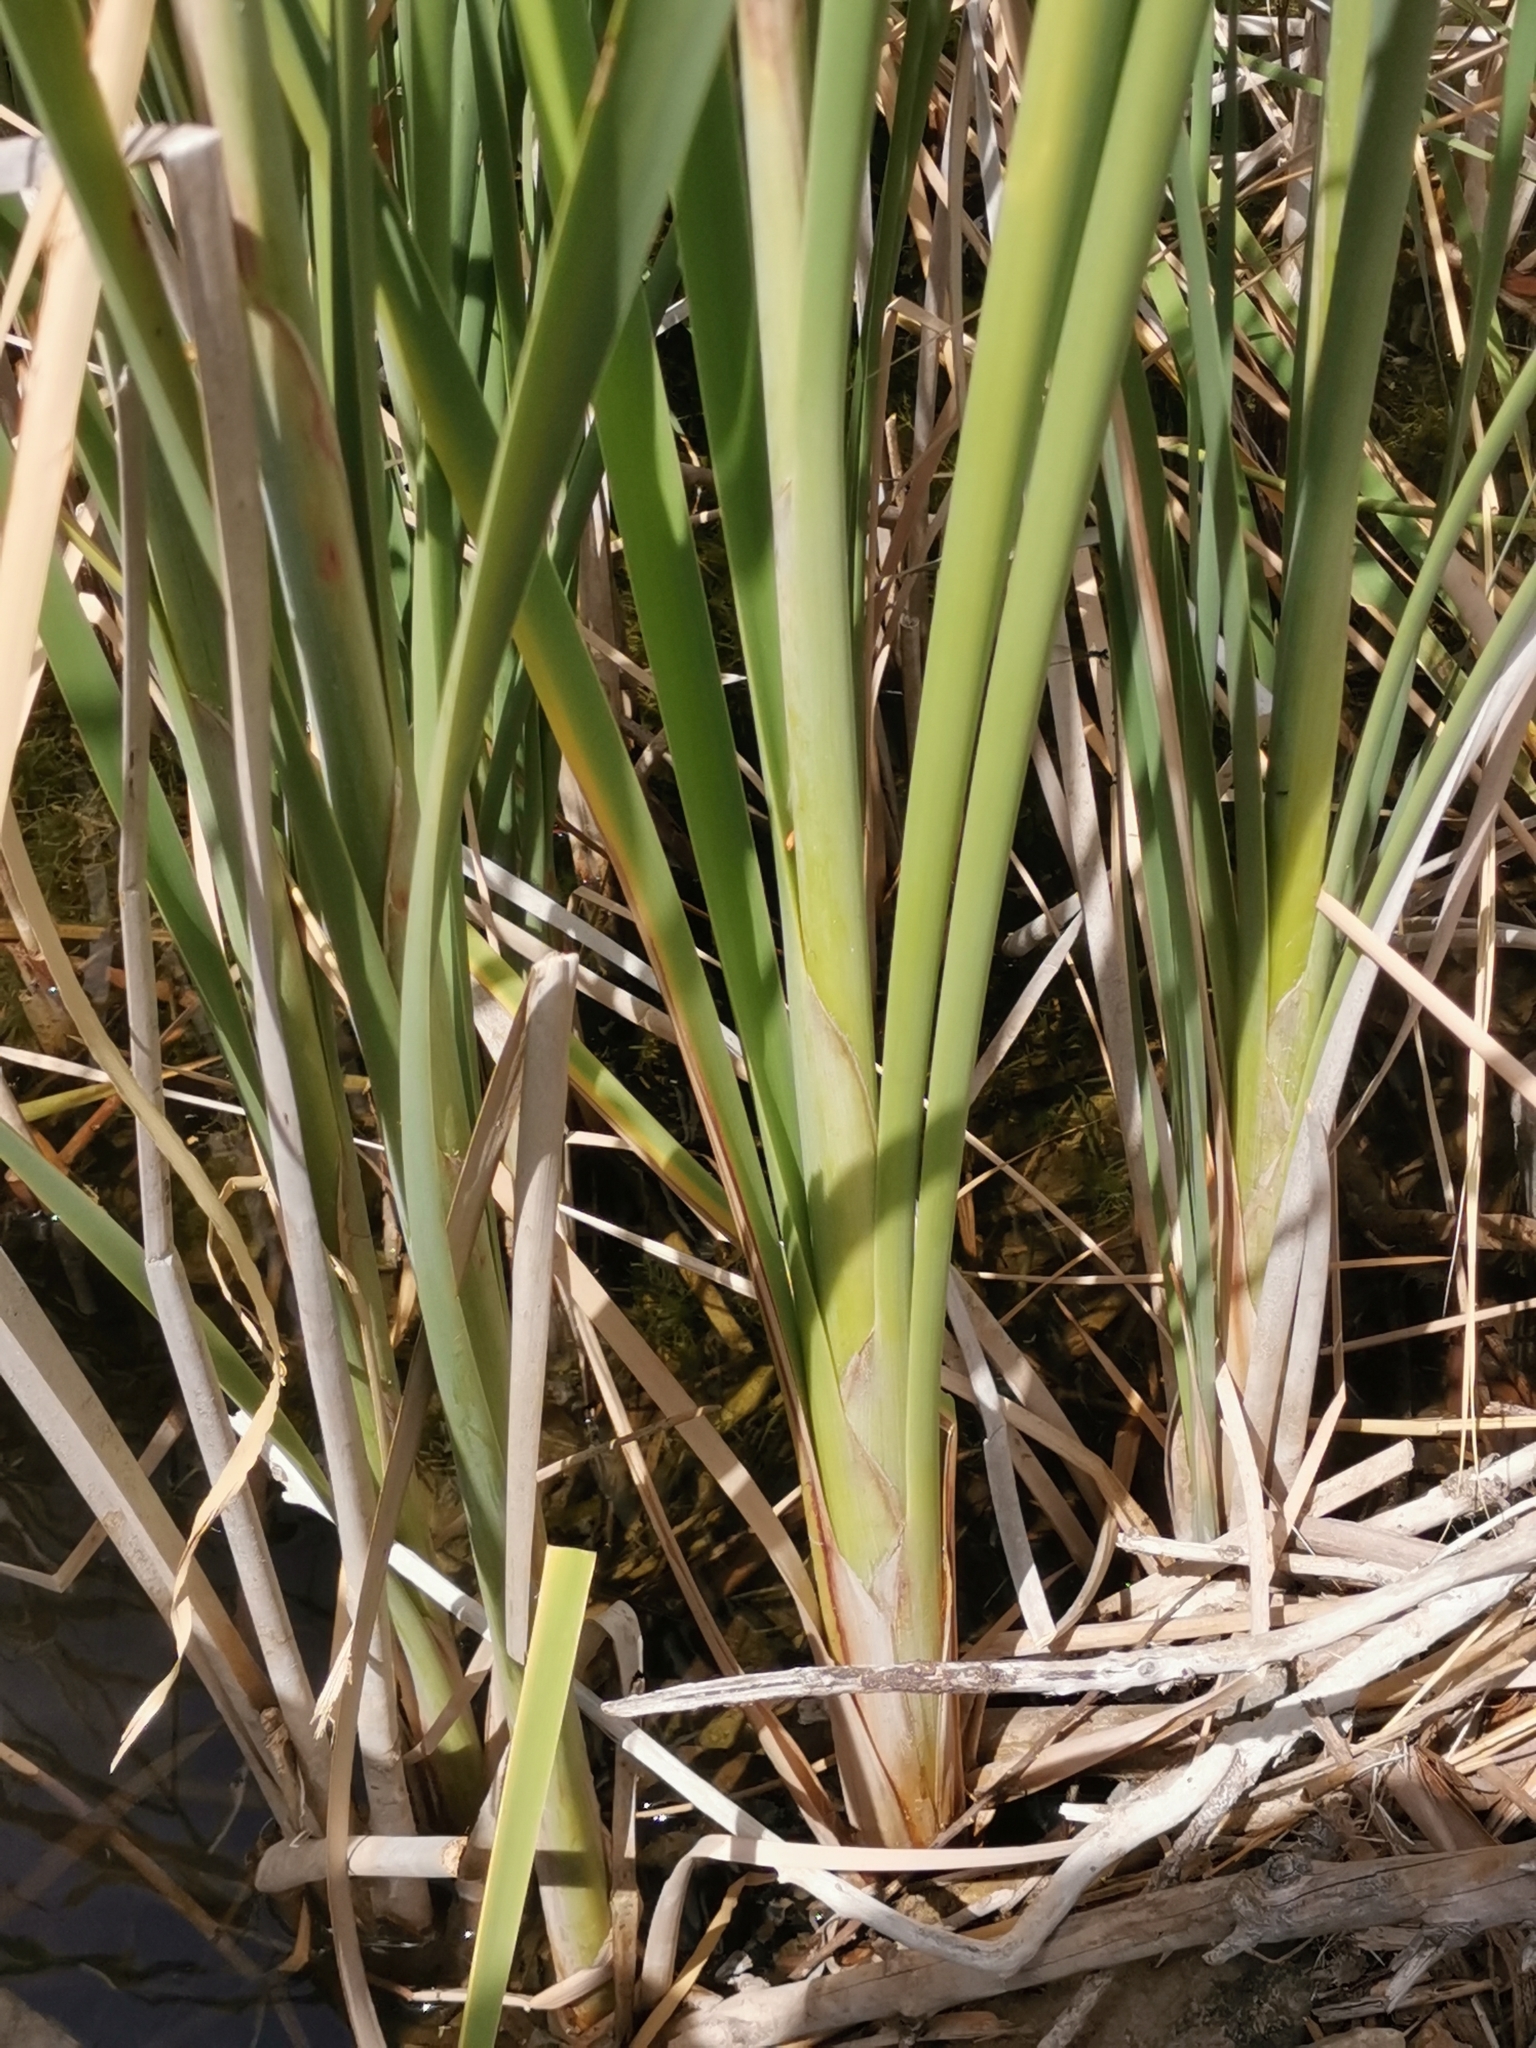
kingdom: Plantae
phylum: Tracheophyta
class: Liliopsida
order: Poales
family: Typhaceae
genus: Typha
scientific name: Typha domingensis
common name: Southern cattail
